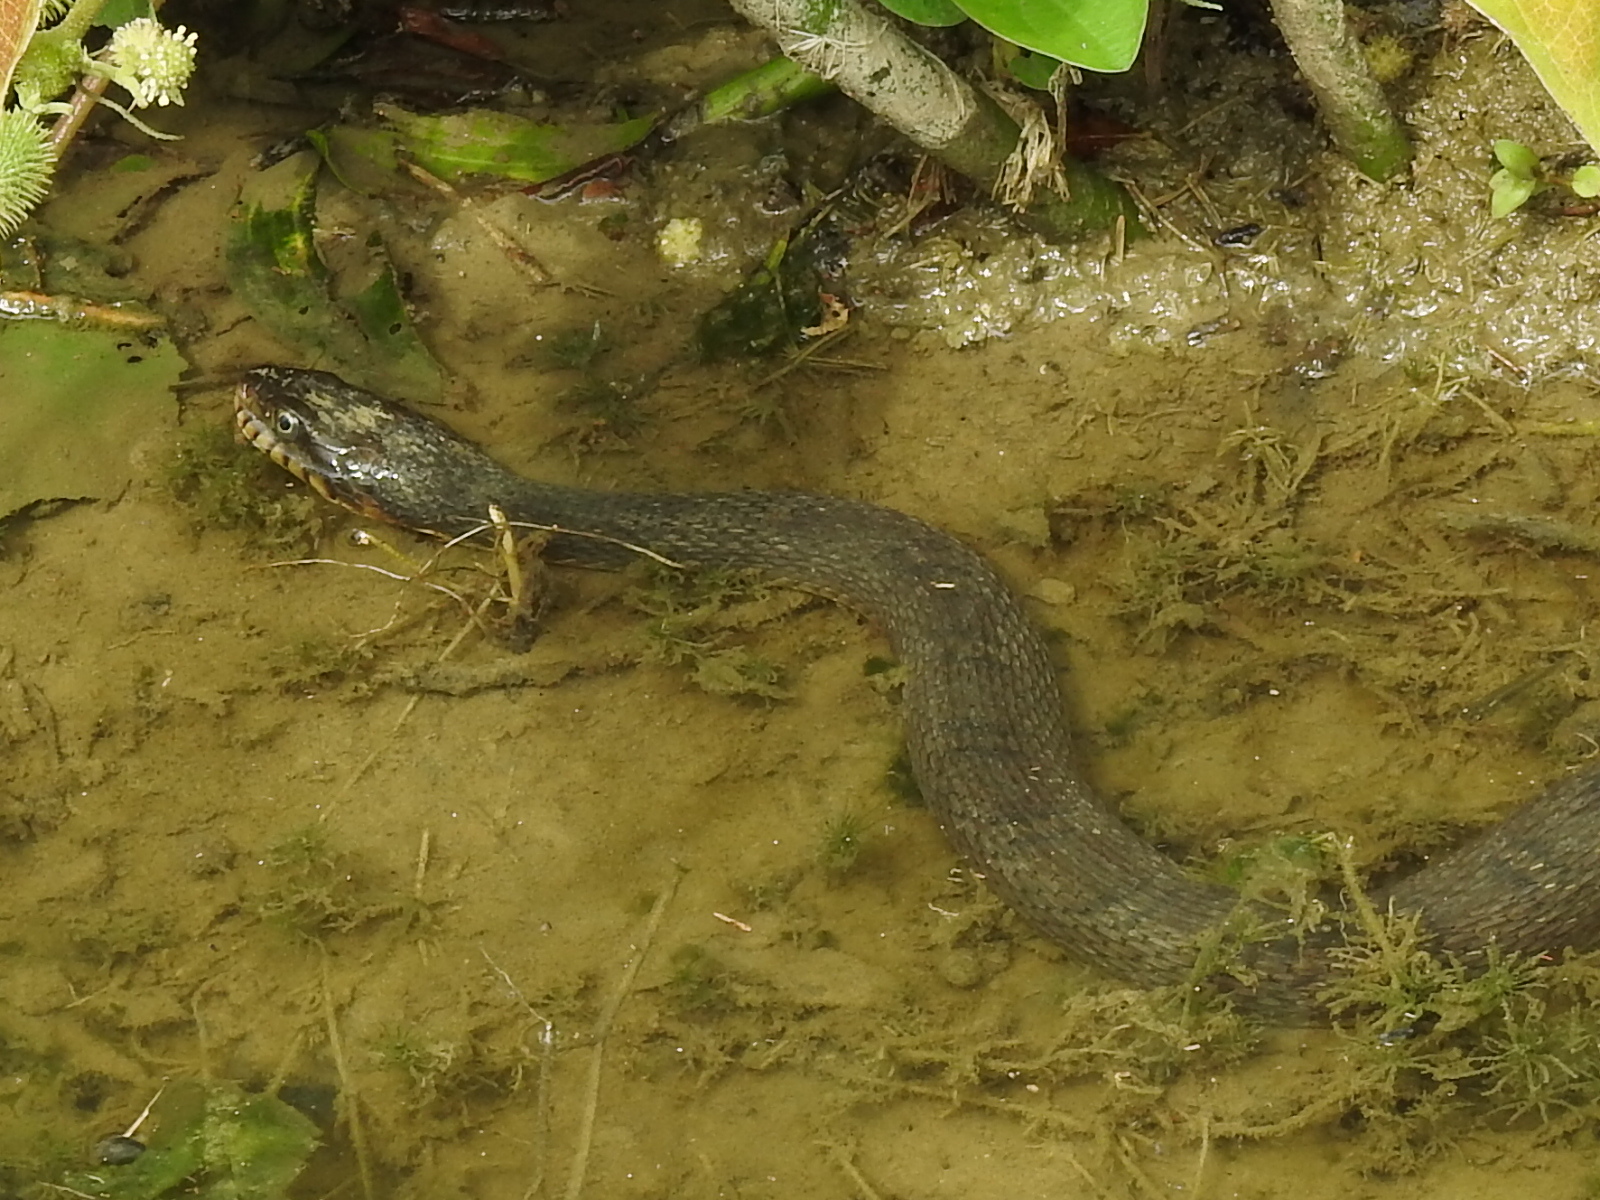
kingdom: Animalia
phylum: Chordata
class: Squamata
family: Colubridae
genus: Nerodia
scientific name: Nerodia erythrogaster
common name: Plainbelly water snake
